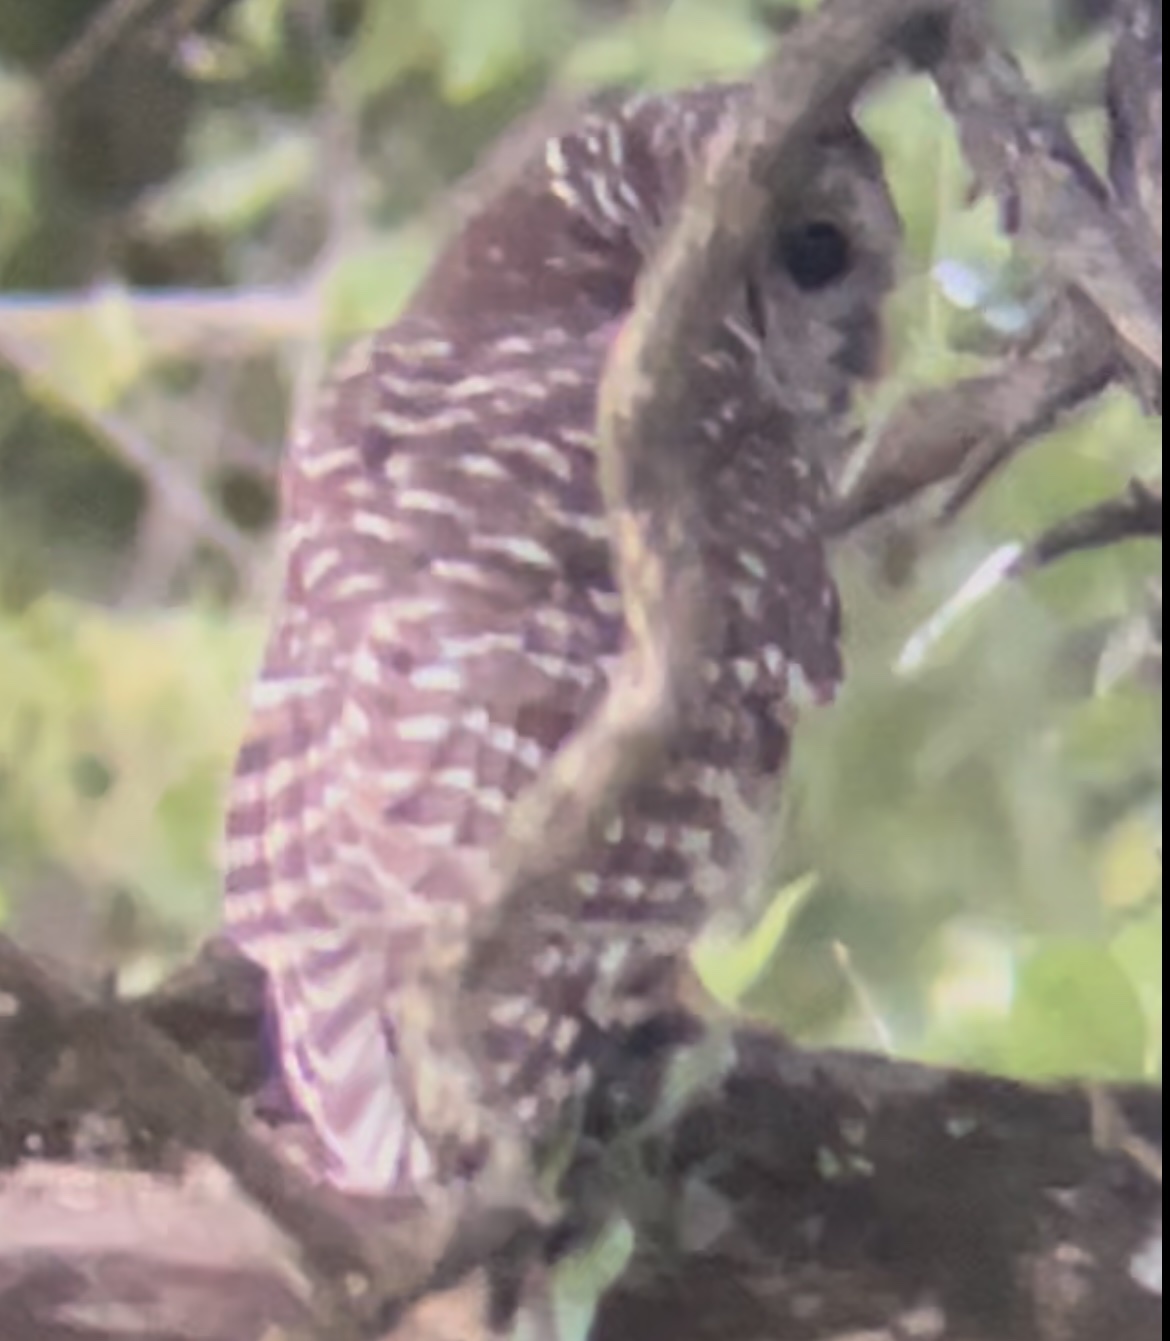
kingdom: Animalia
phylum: Chordata
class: Aves
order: Strigiformes
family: Strigidae
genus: Strix
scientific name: Strix varia
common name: Barred owl
